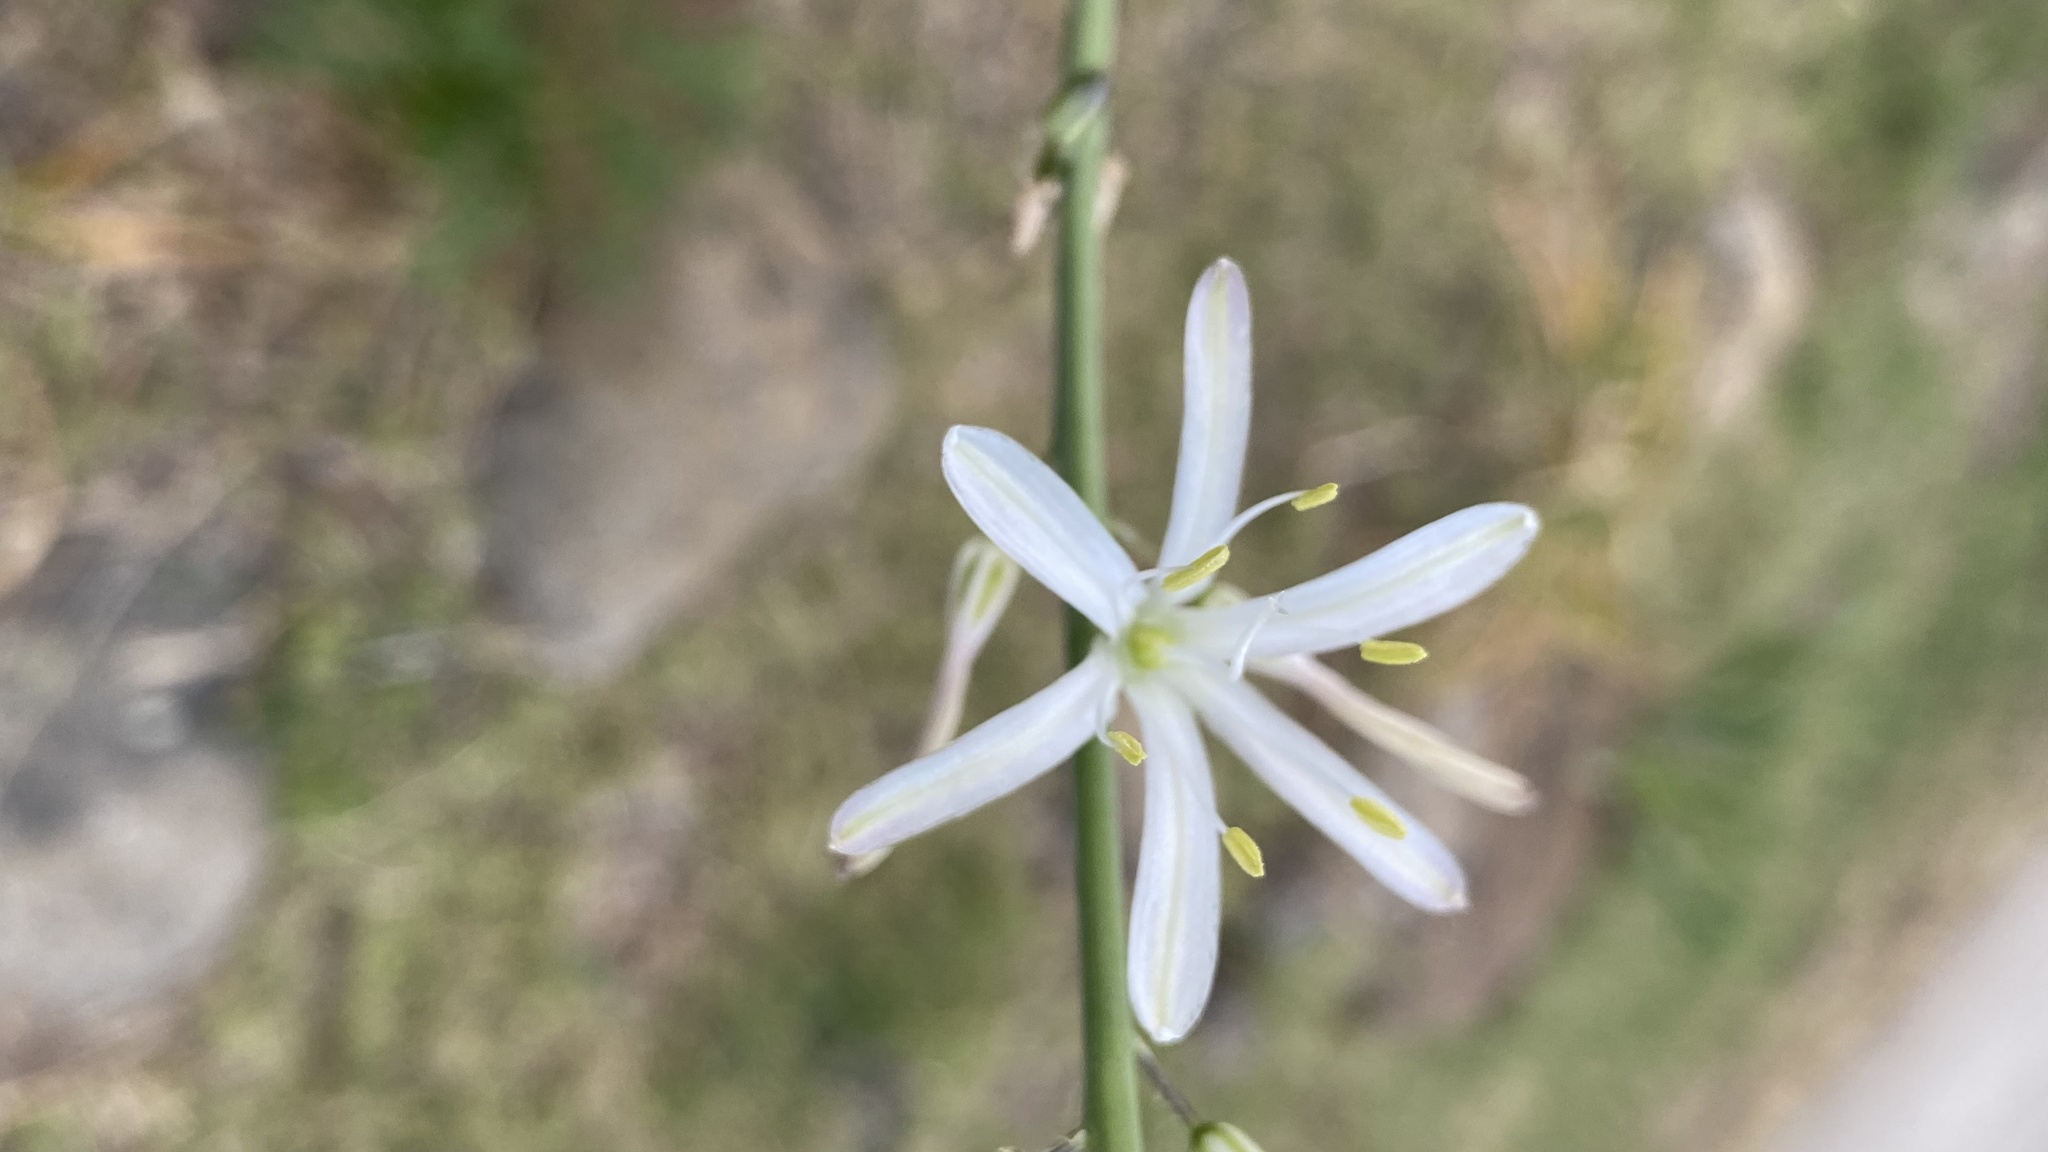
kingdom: Plantae
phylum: Tracheophyta
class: Liliopsida
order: Asparagales
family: Asparagaceae
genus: Chlorogalum
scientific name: Chlorogalum pomeridianum
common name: Amole
